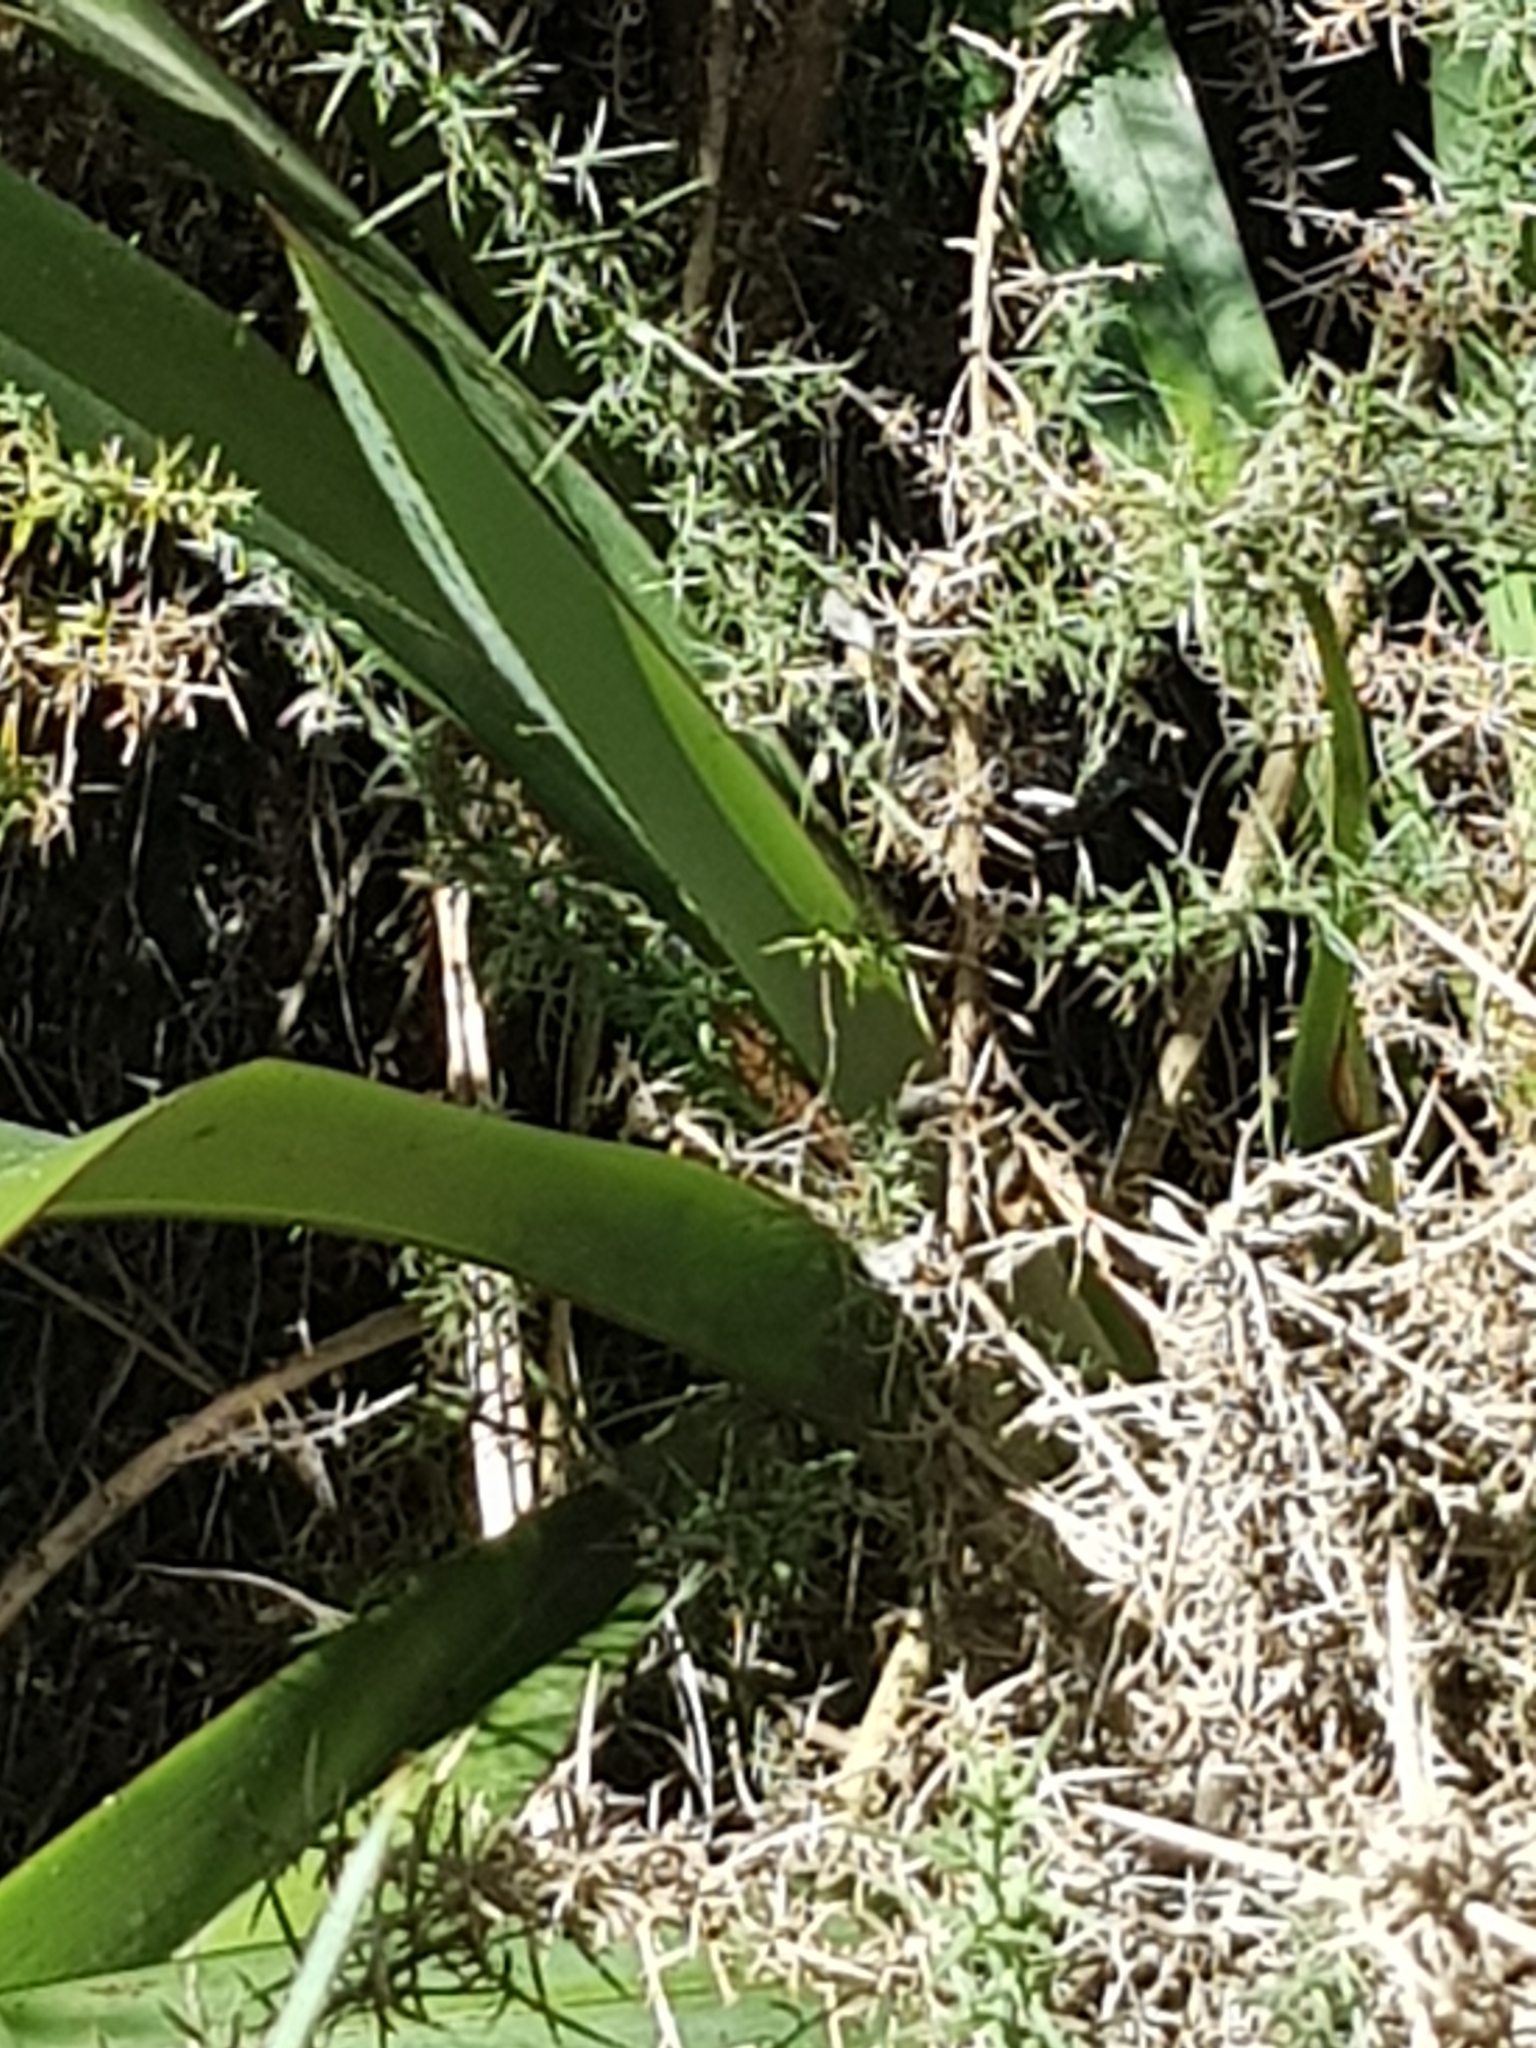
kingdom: Plantae
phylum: Tracheophyta
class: Liliopsida
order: Asparagales
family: Asphodelaceae
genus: Phormium
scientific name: Phormium tenax
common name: New zealand flax
